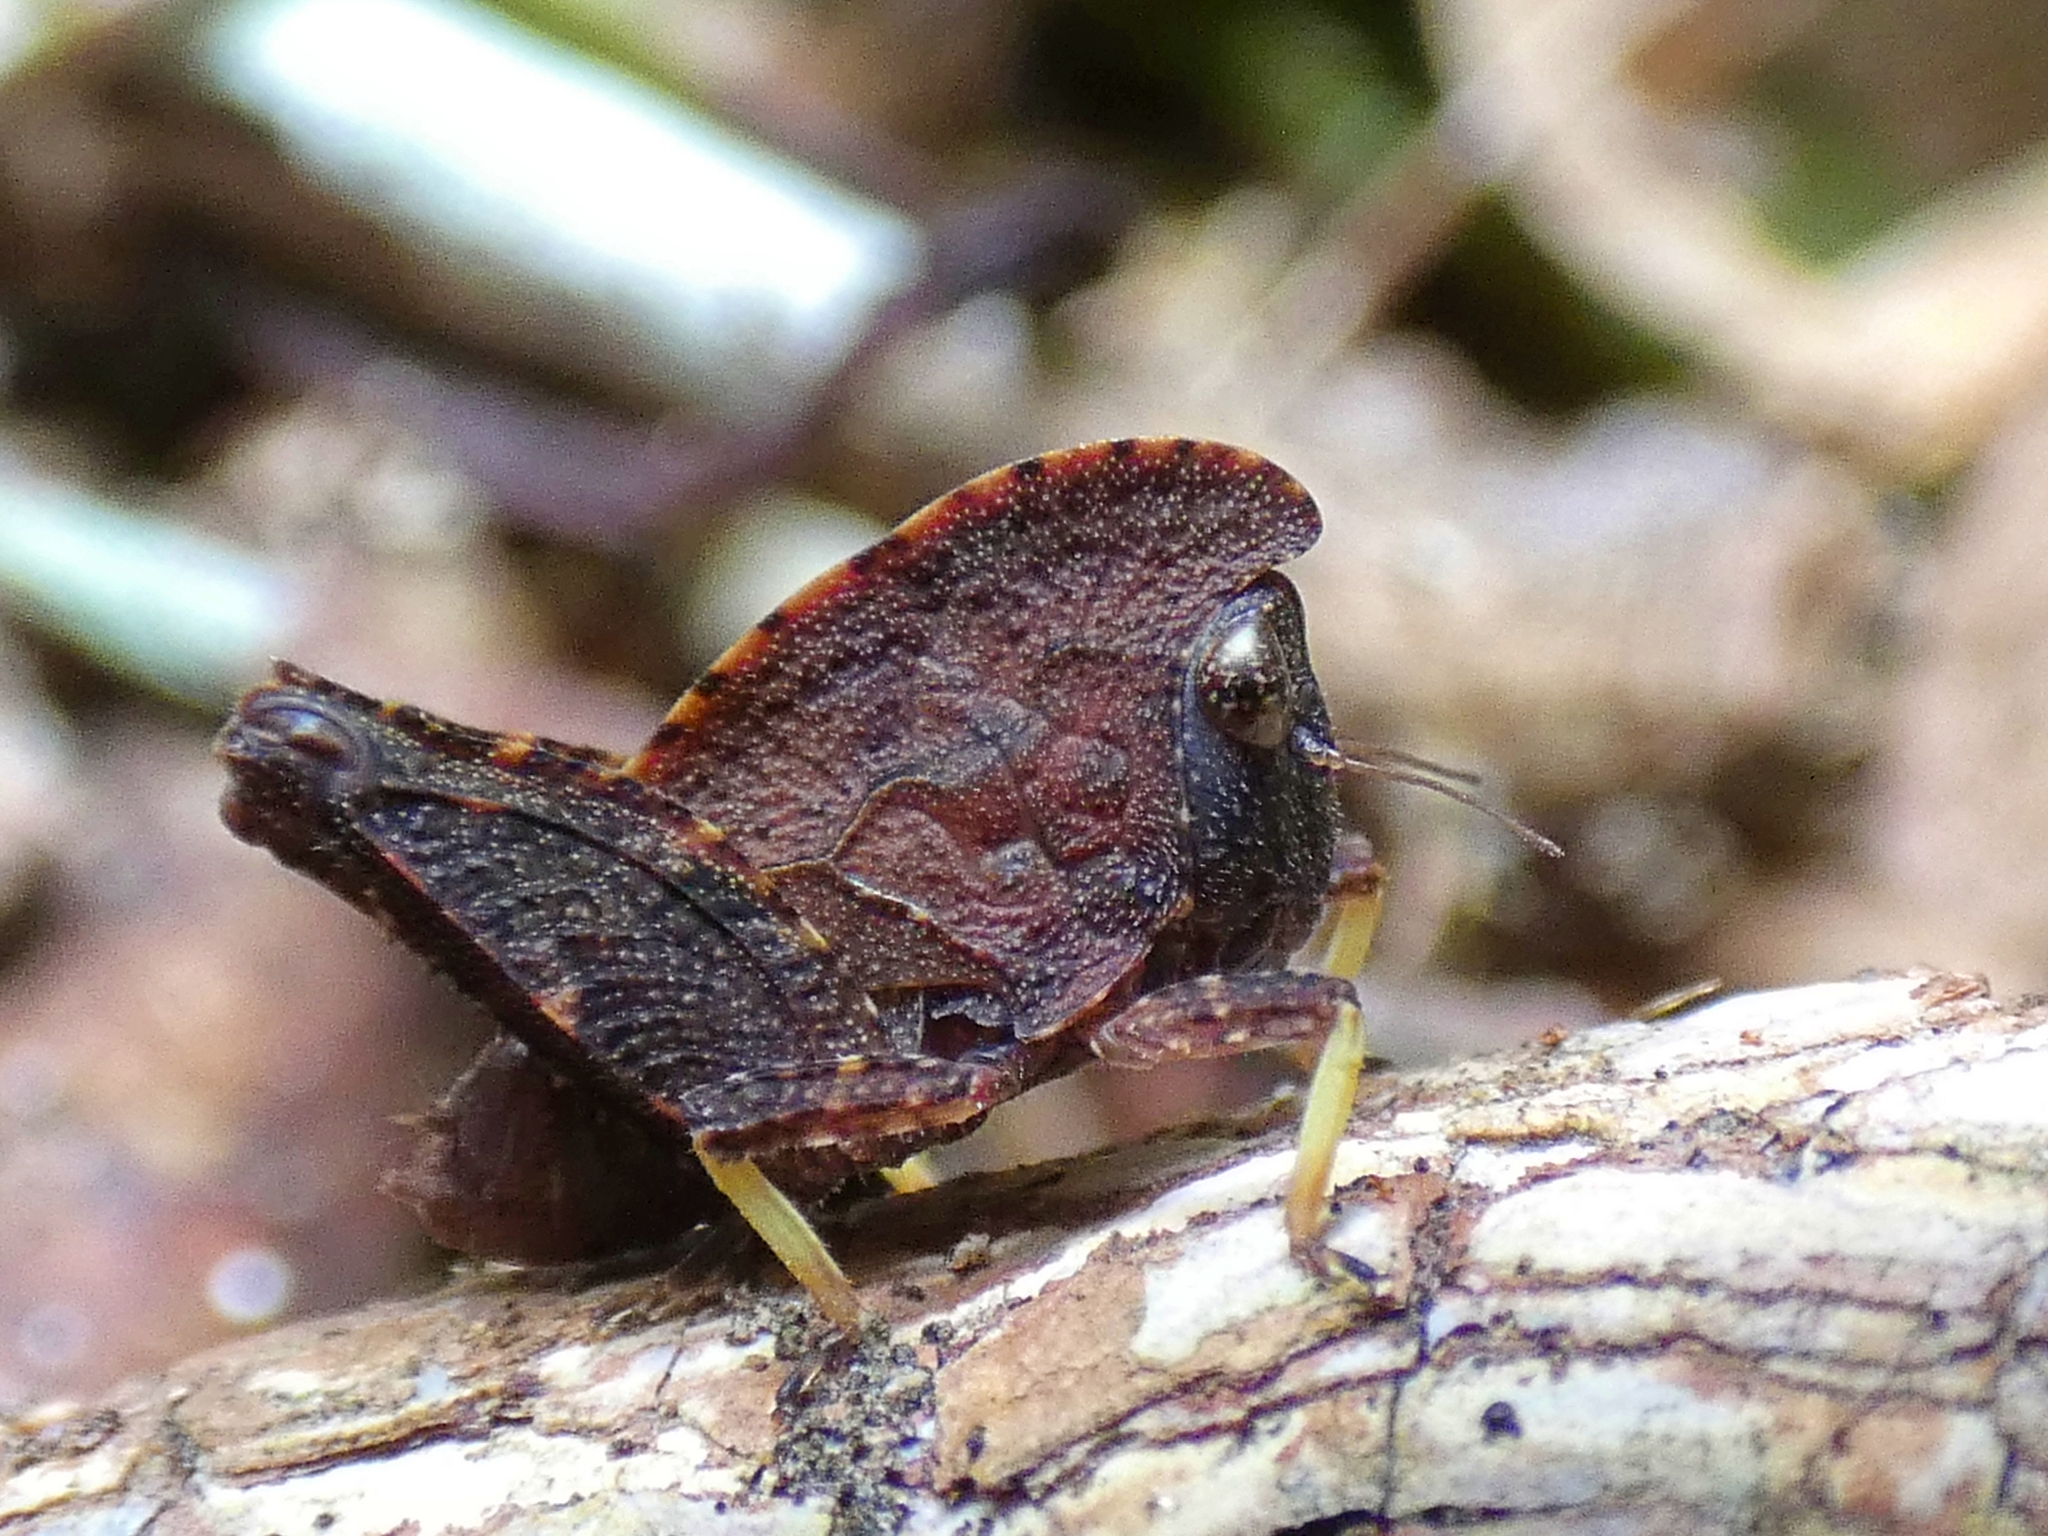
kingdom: Animalia
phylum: Arthropoda
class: Insecta
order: Orthoptera
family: Tetrigidae
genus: Selivinga
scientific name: Selivinga tribulata
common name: Tribulation helmed groundhopper
